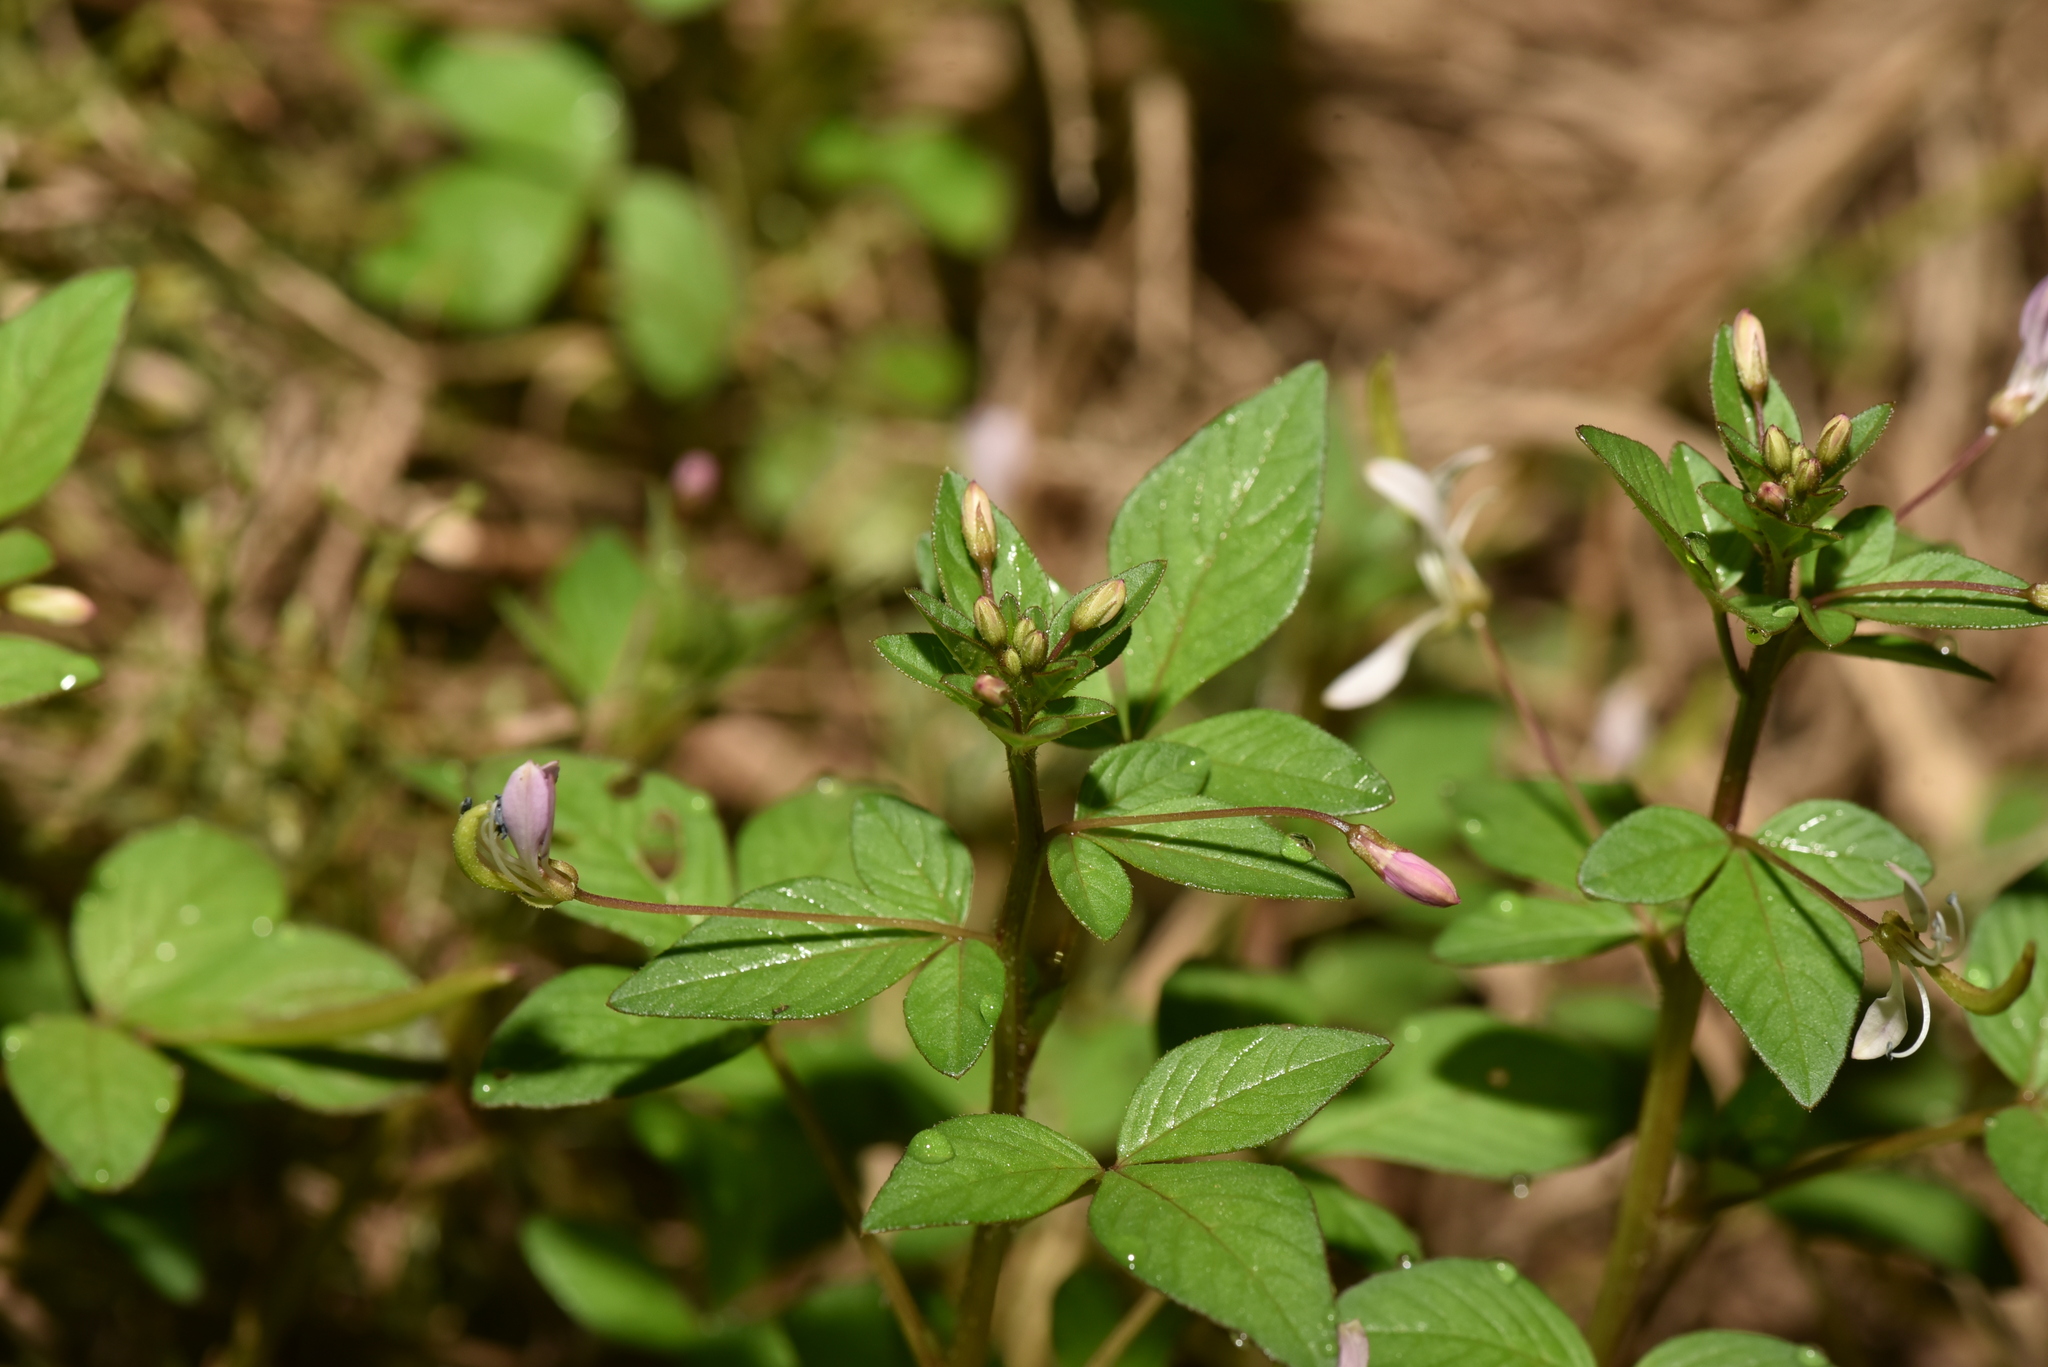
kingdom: Plantae
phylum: Tracheophyta
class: Magnoliopsida
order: Brassicales
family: Cleomaceae
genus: Sieruela
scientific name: Sieruela rutidosperma
